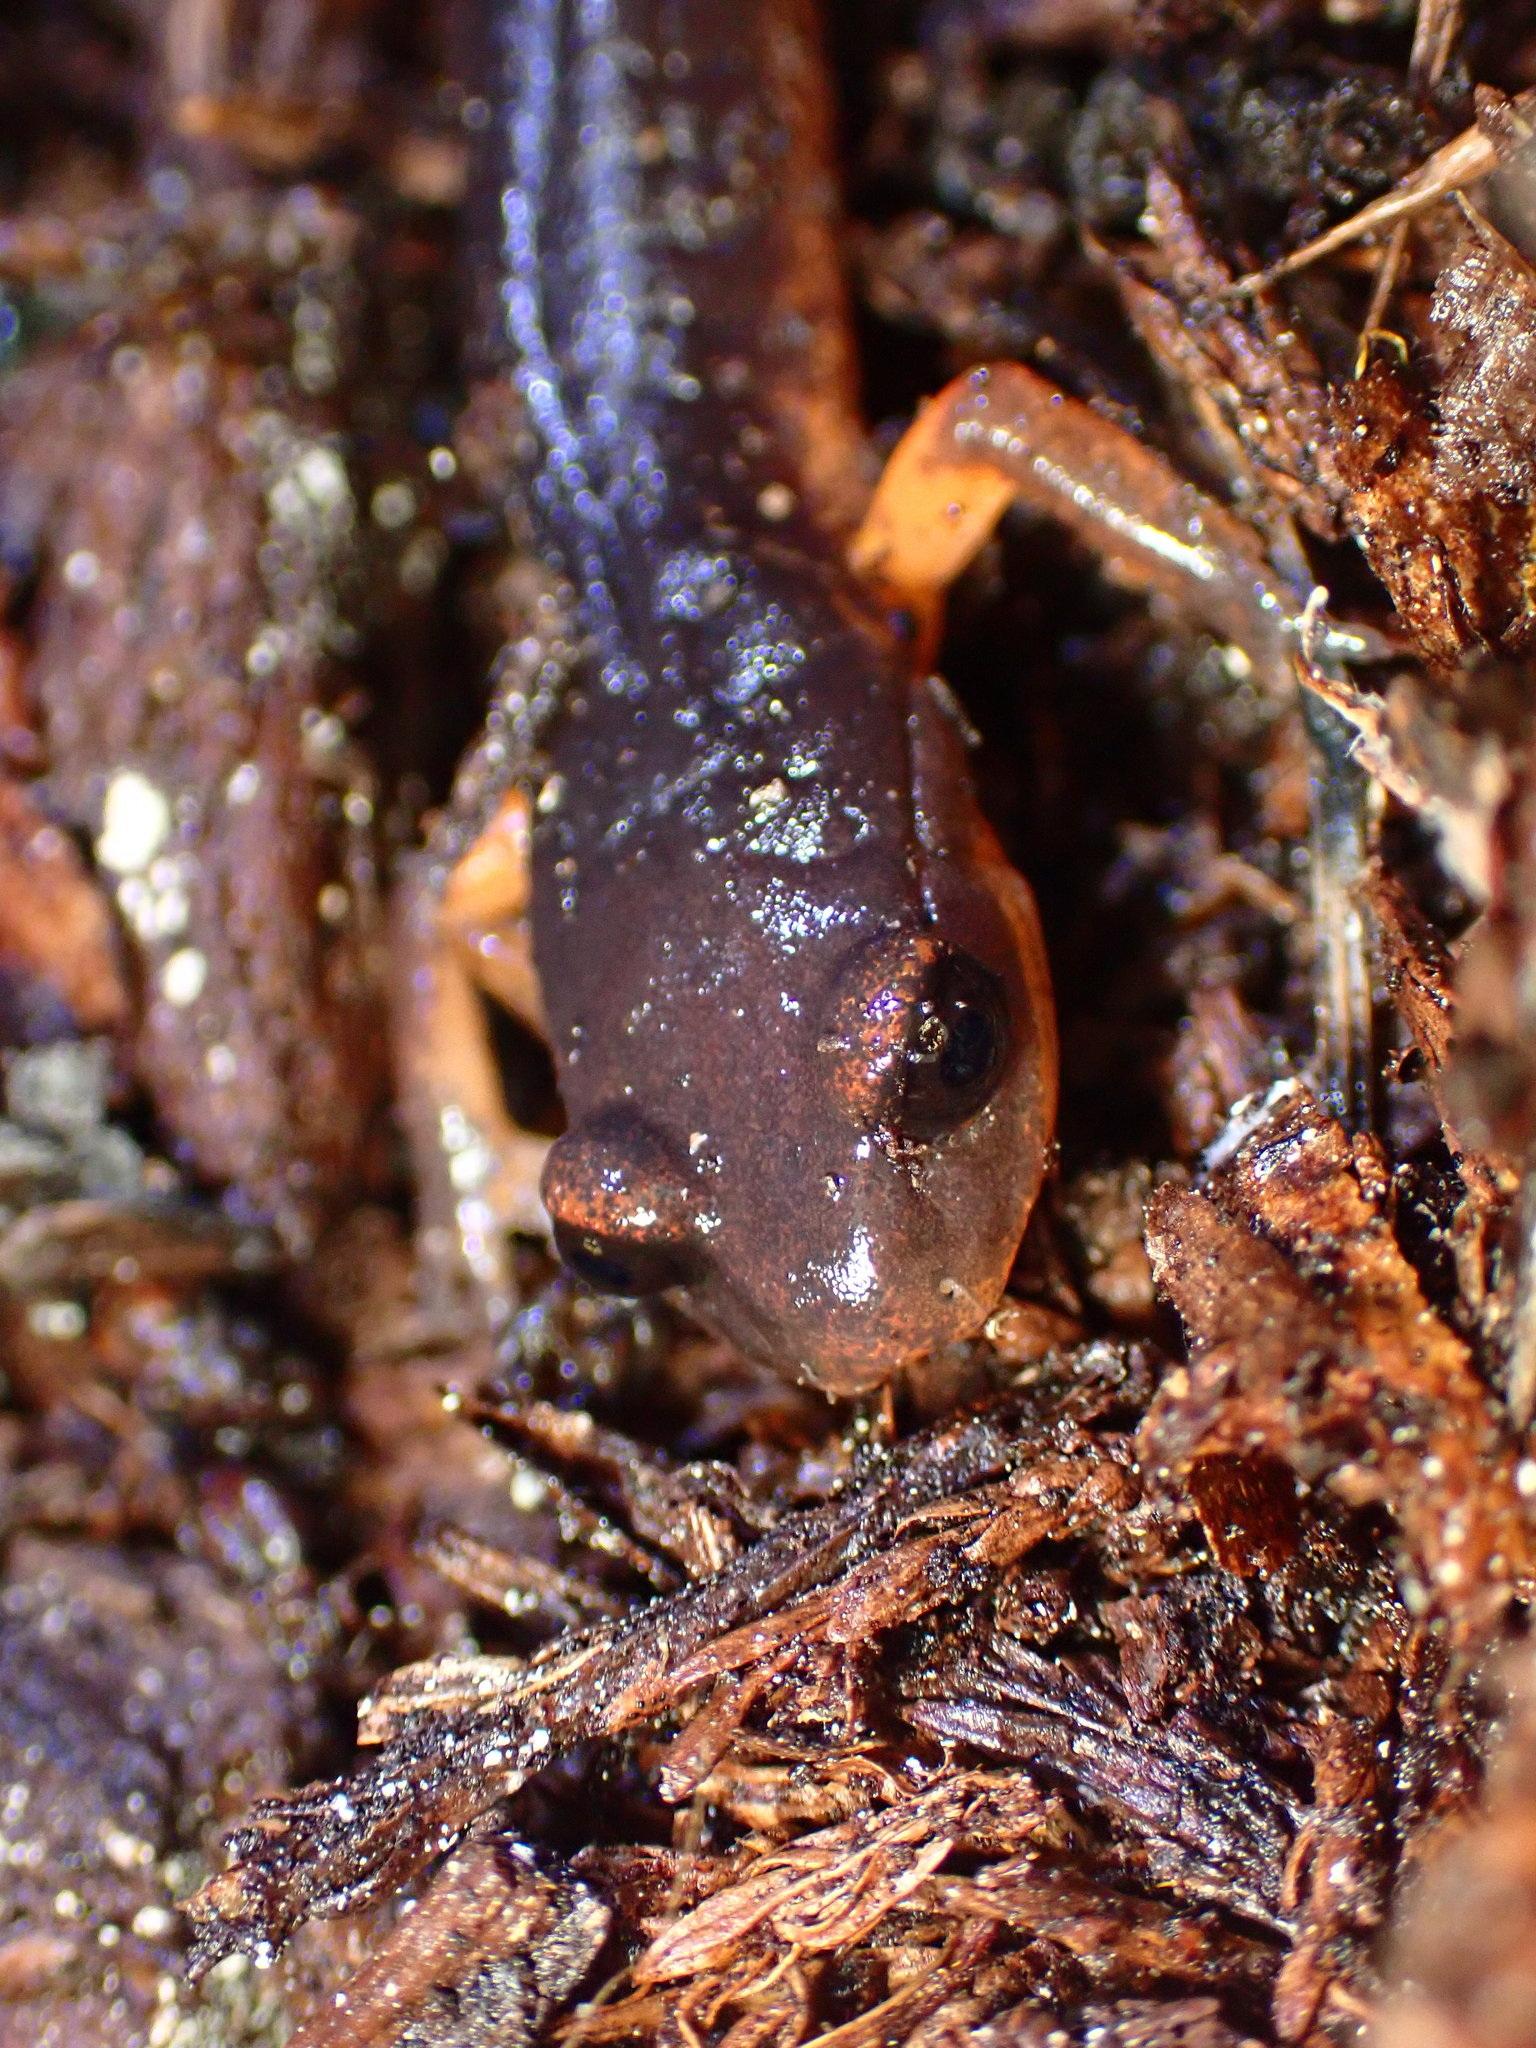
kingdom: Animalia
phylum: Chordata
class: Amphibia
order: Caudata
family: Plethodontidae
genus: Ensatina
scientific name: Ensatina eschscholtzii
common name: Ensatina
